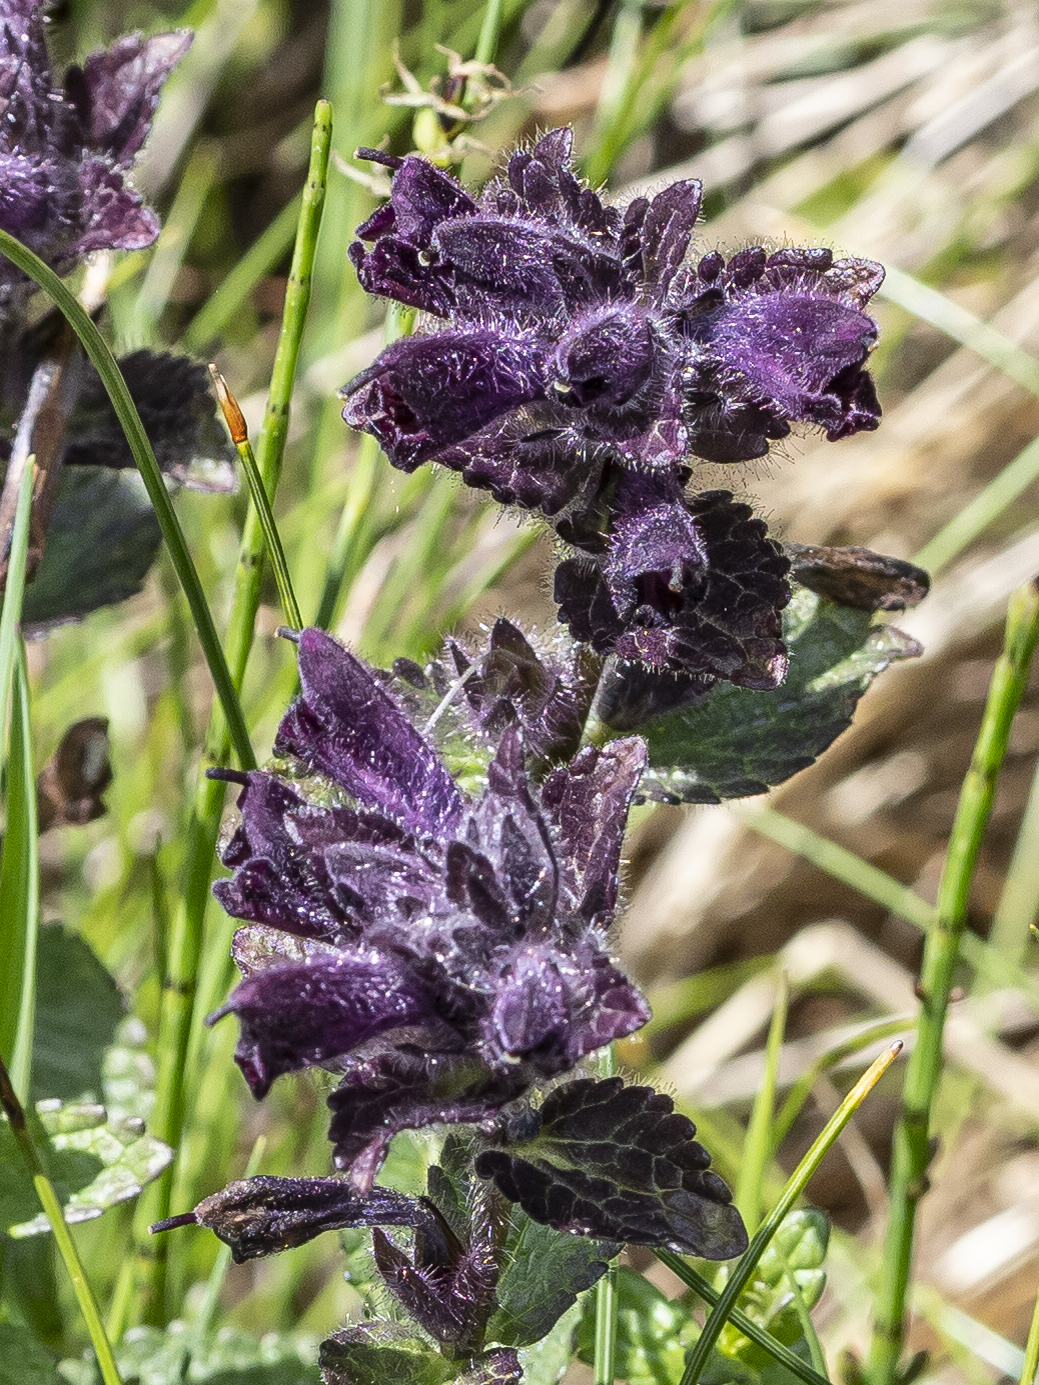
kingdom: Plantae
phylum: Tracheophyta
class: Magnoliopsida
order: Lamiales
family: Orobanchaceae
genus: Bartsia
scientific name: Bartsia alpina
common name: Alpine bartsia
